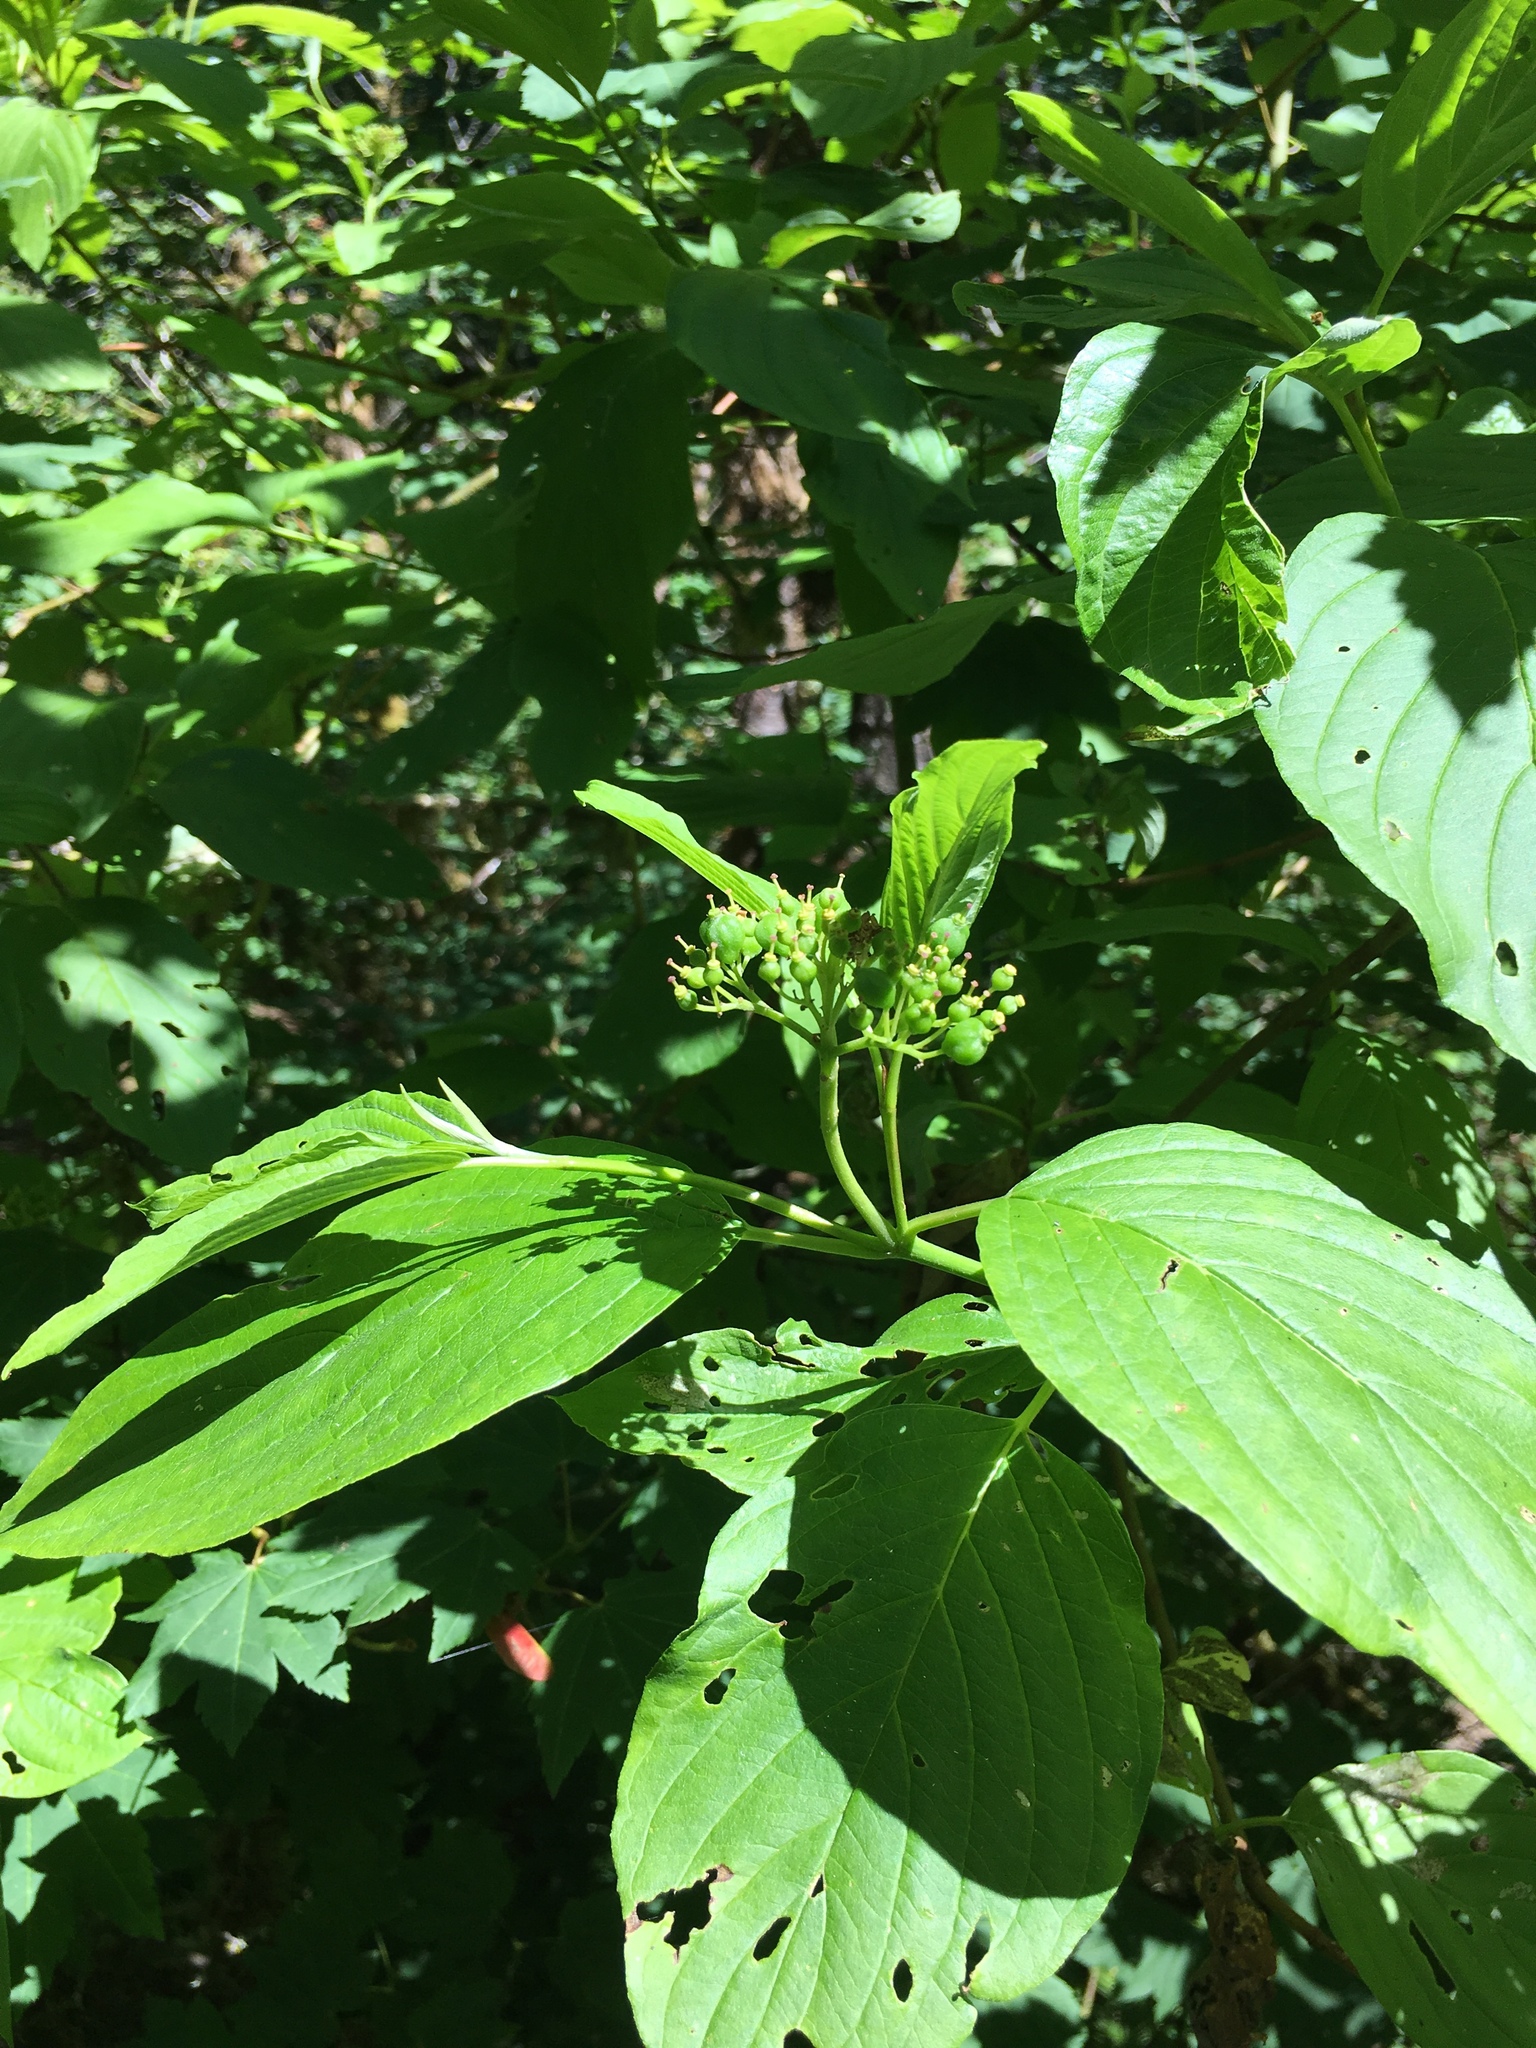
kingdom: Plantae
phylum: Tracheophyta
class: Magnoliopsida
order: Cornales
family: Cornaceae
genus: Cornus
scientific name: Cornus sericea
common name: Red-osier dogwood
